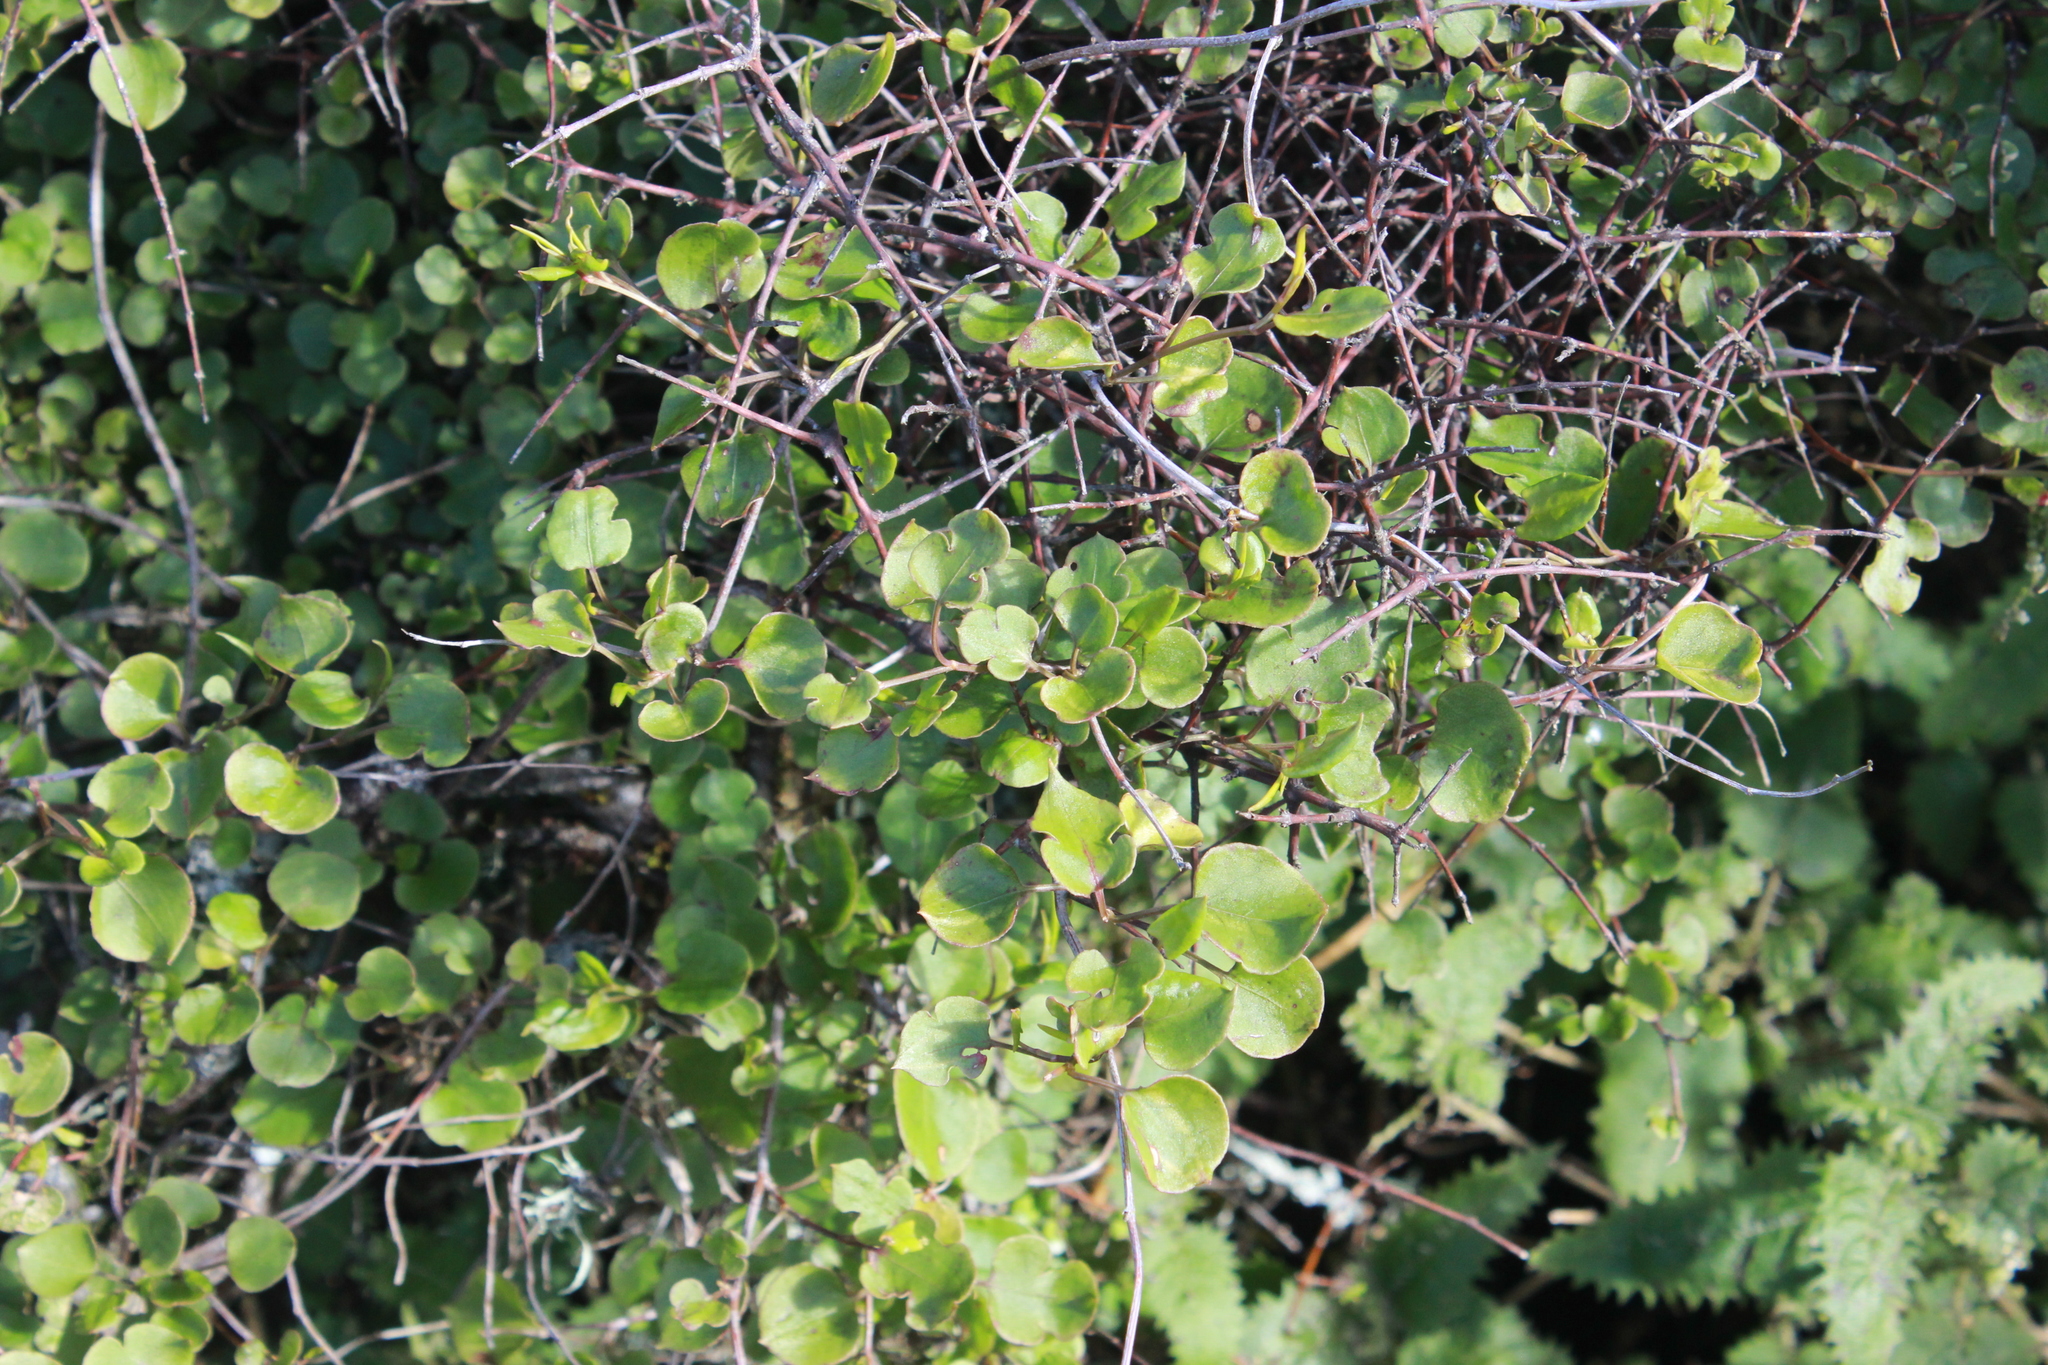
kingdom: Plantae
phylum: Tracheophyta
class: Magnoliopsida
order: Caryophyllales
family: Polygonaceae
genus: Muehlenbeckia
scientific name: Muehlenbeckia complexa
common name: Wireplant
